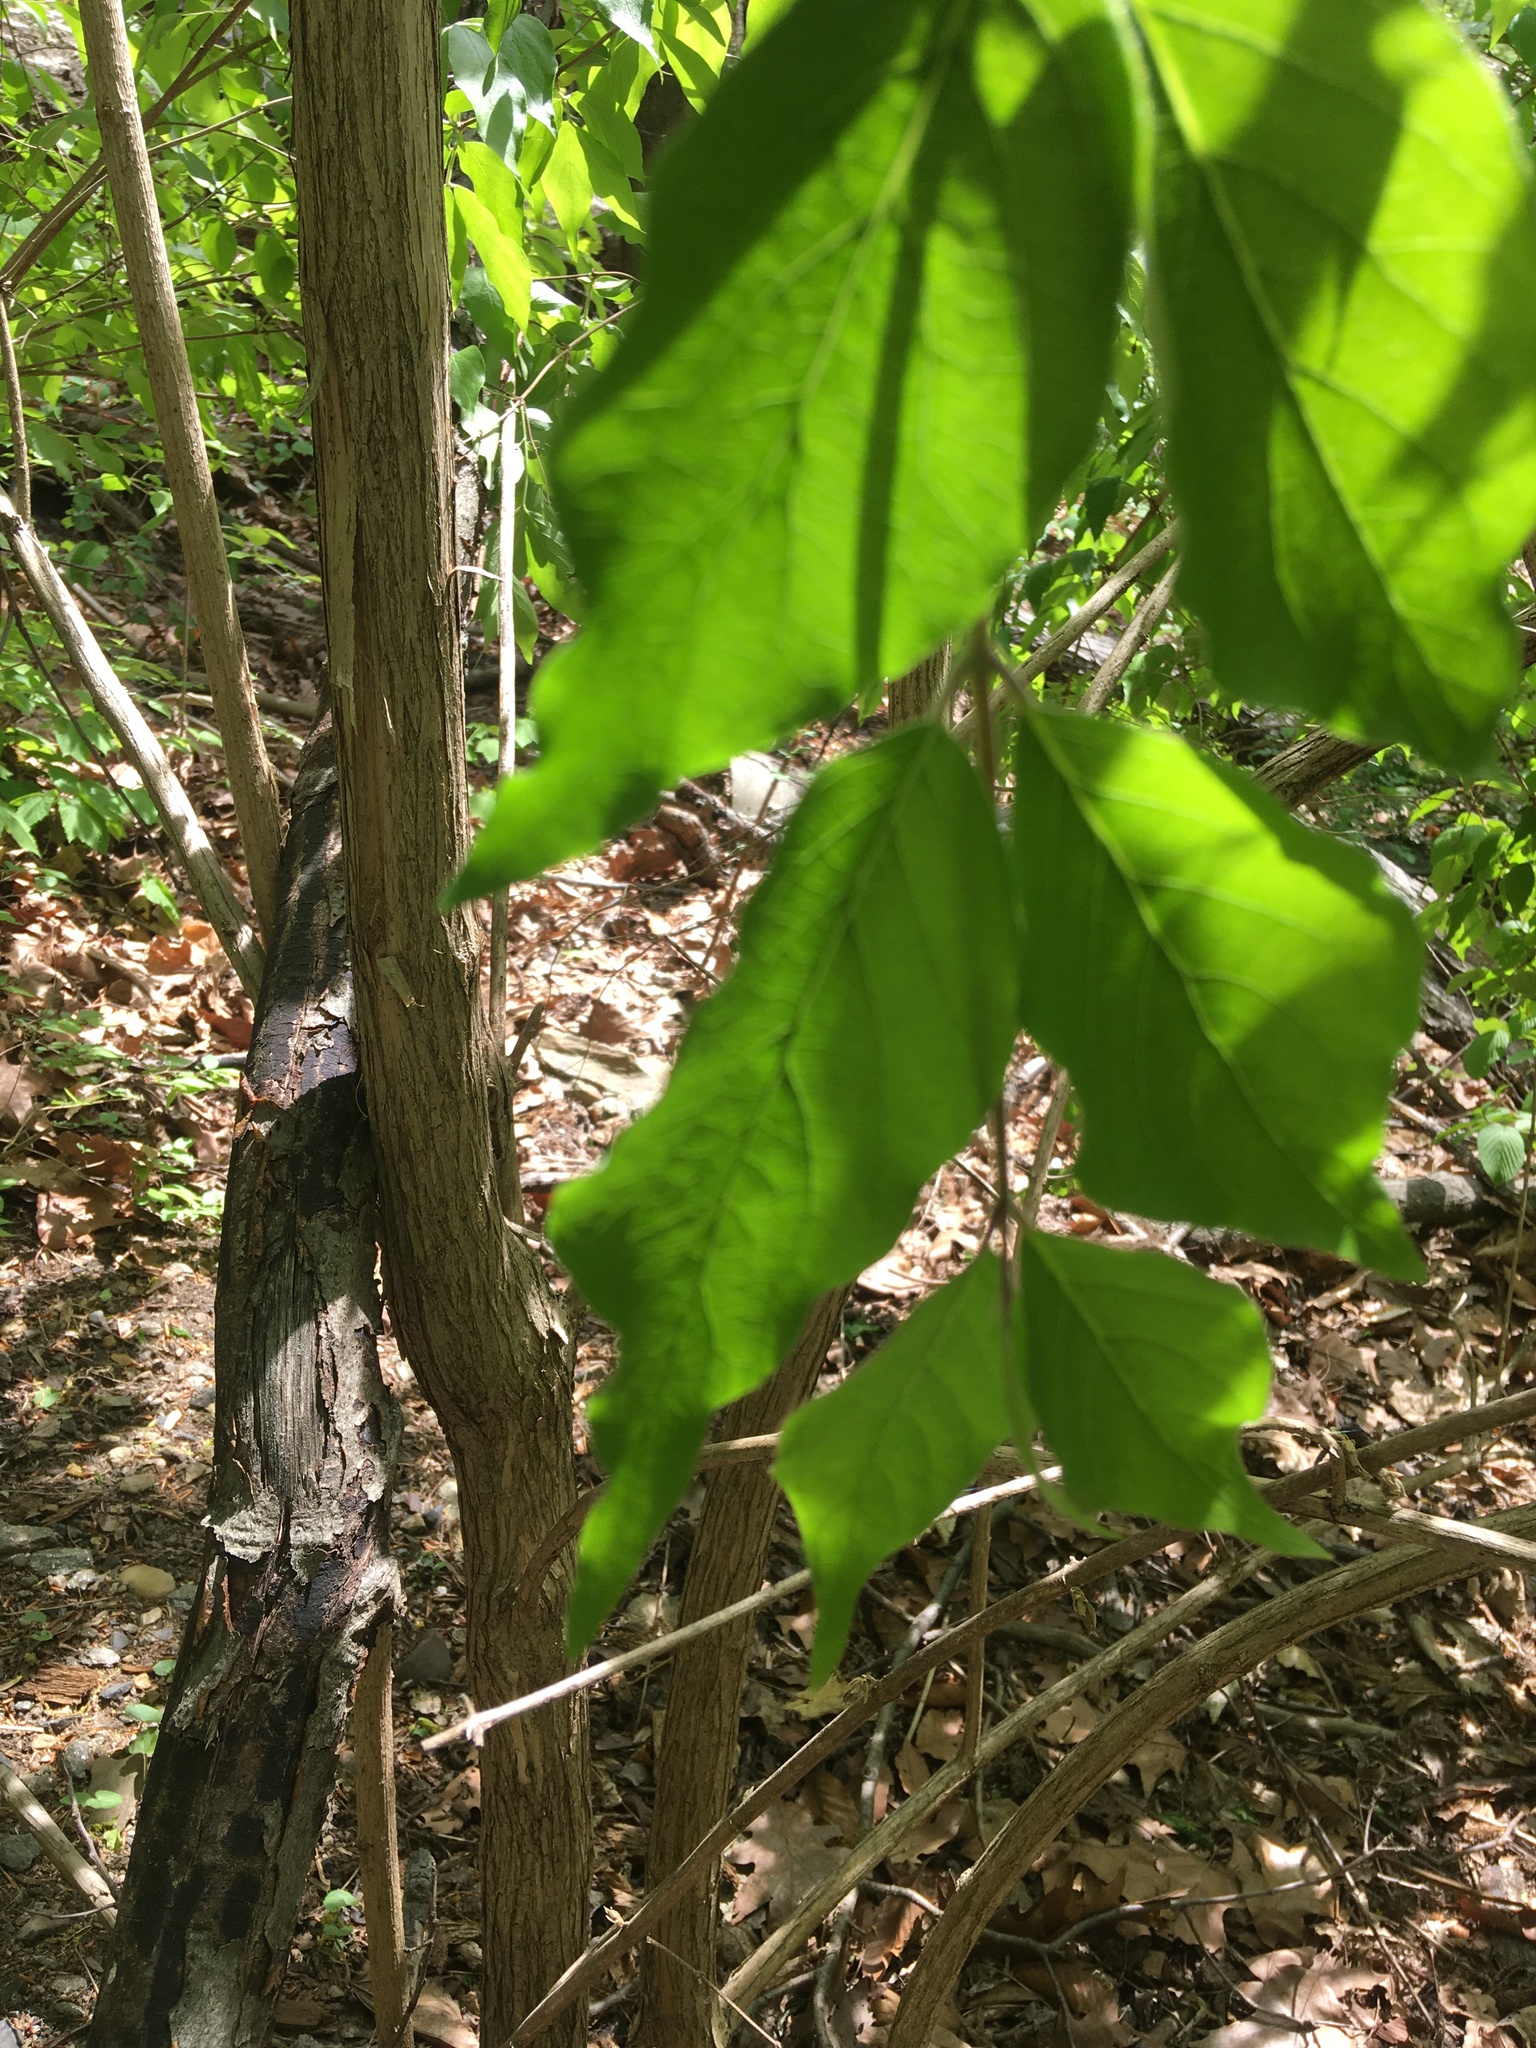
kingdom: Plantae
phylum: Tracheophyta
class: Magnoliopsida
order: Dipsacales
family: Caprifoliaceae
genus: Lonicera
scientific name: Lonicera maackii
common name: Amur honeysuckle
